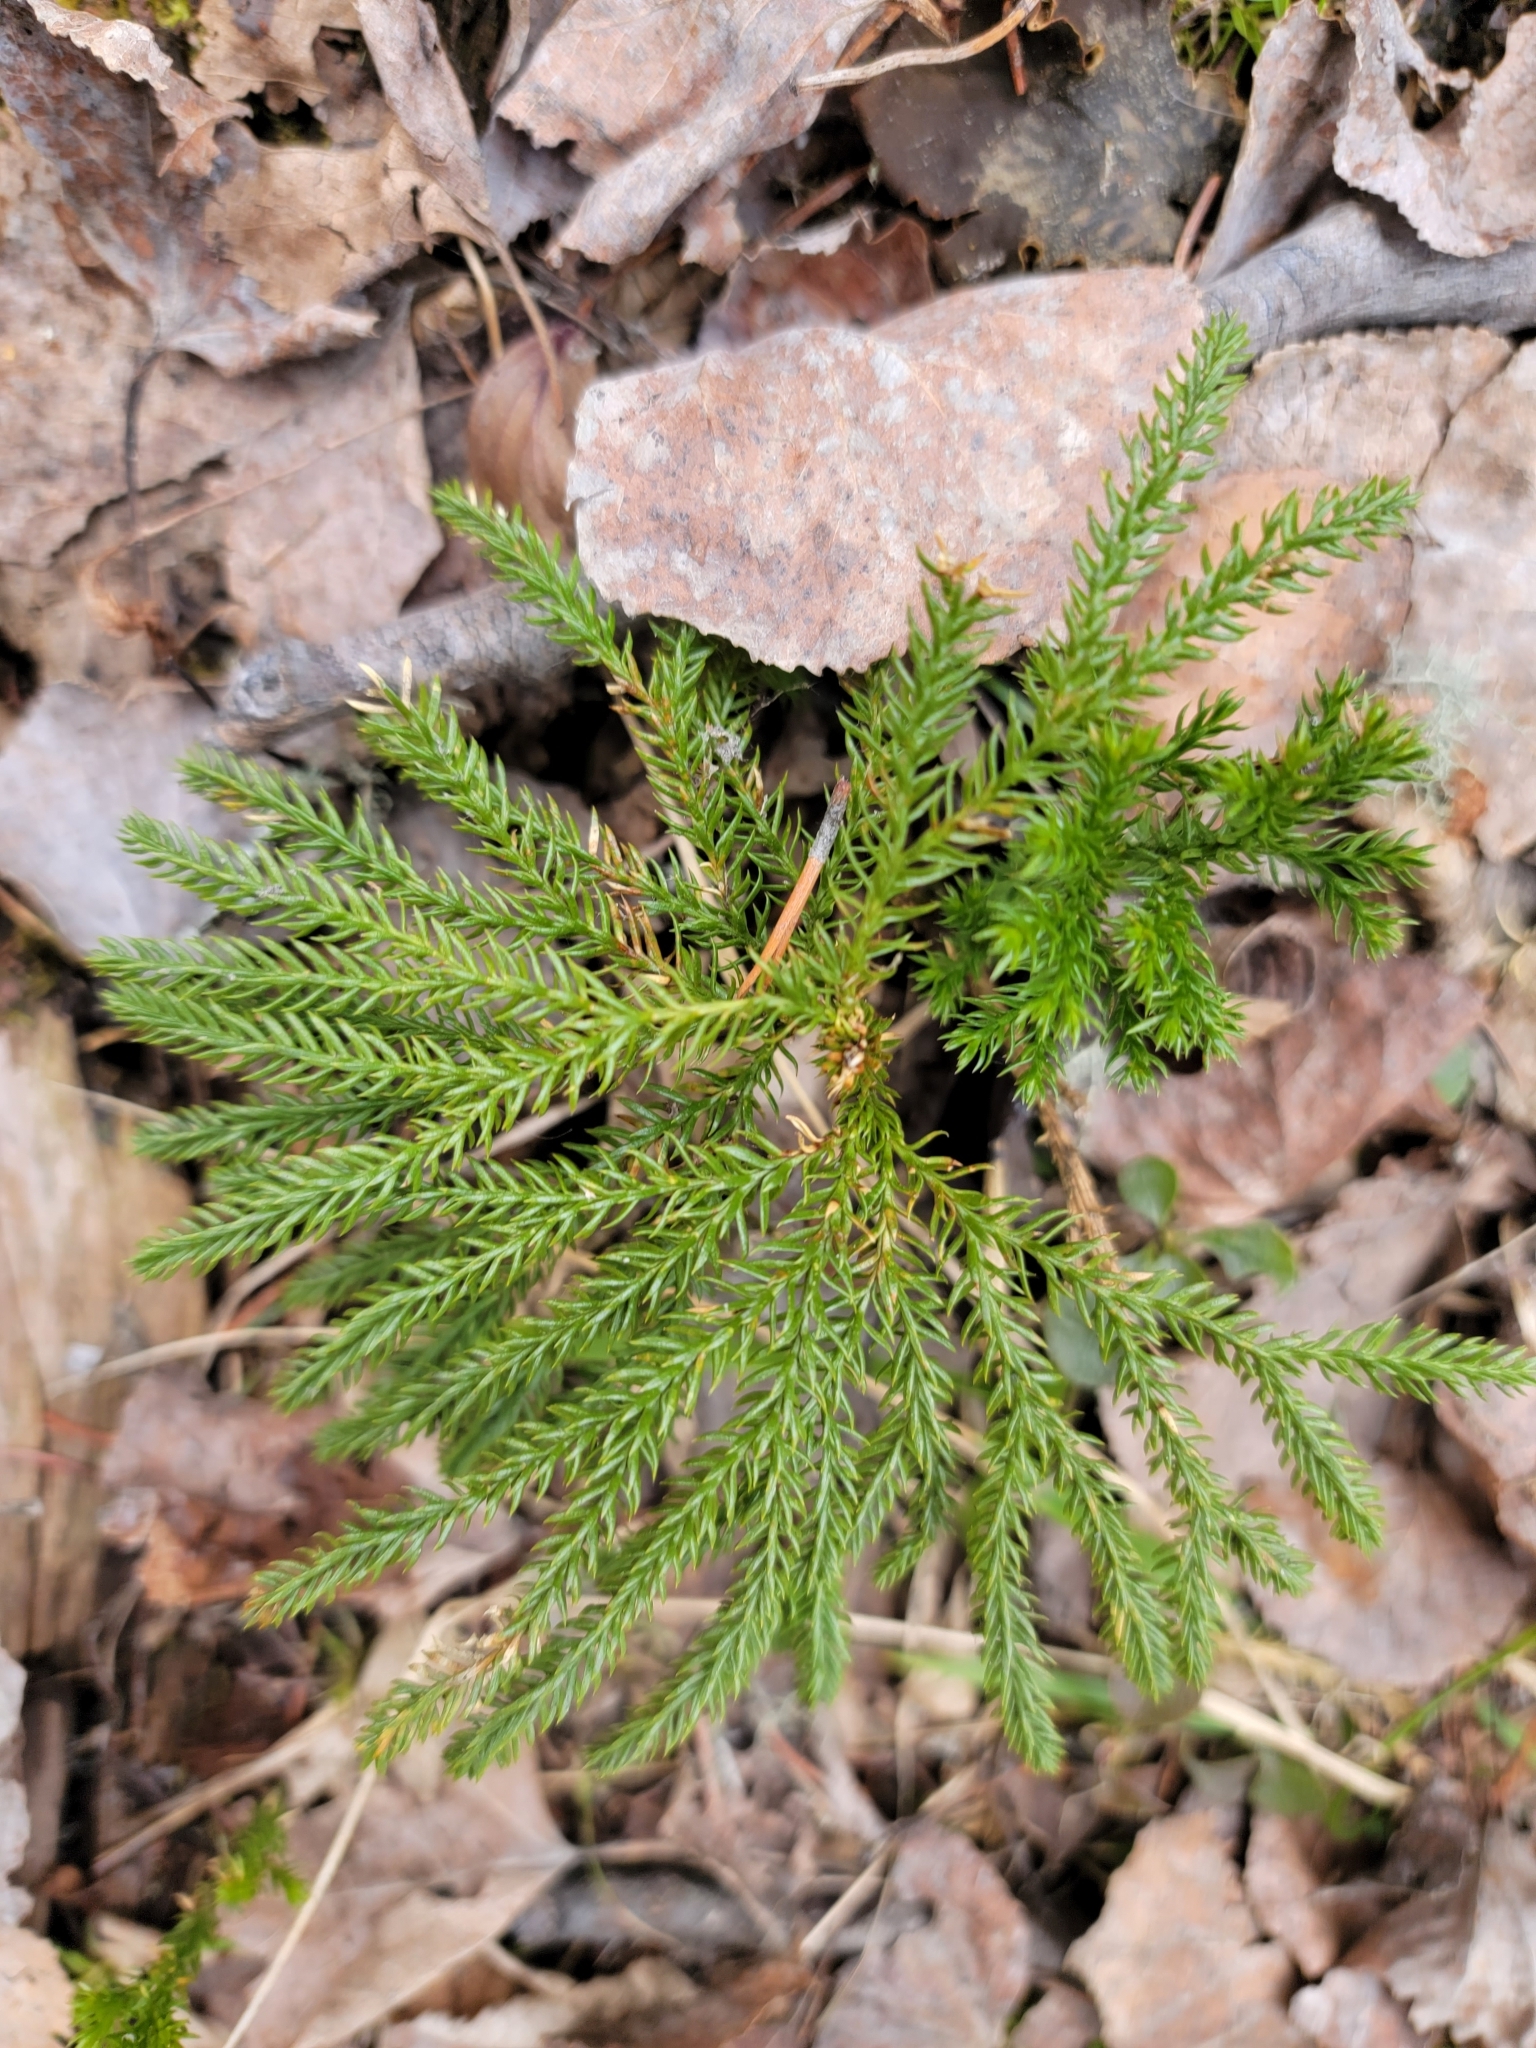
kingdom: Plantae
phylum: Tracheophyta
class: Lycopodiopsida
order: Lycopodiales
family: Lycopodiaceae
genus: Dendrolycopodium
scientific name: Dendrolycopodium dendroideum
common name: Northern tree-clubmoss
